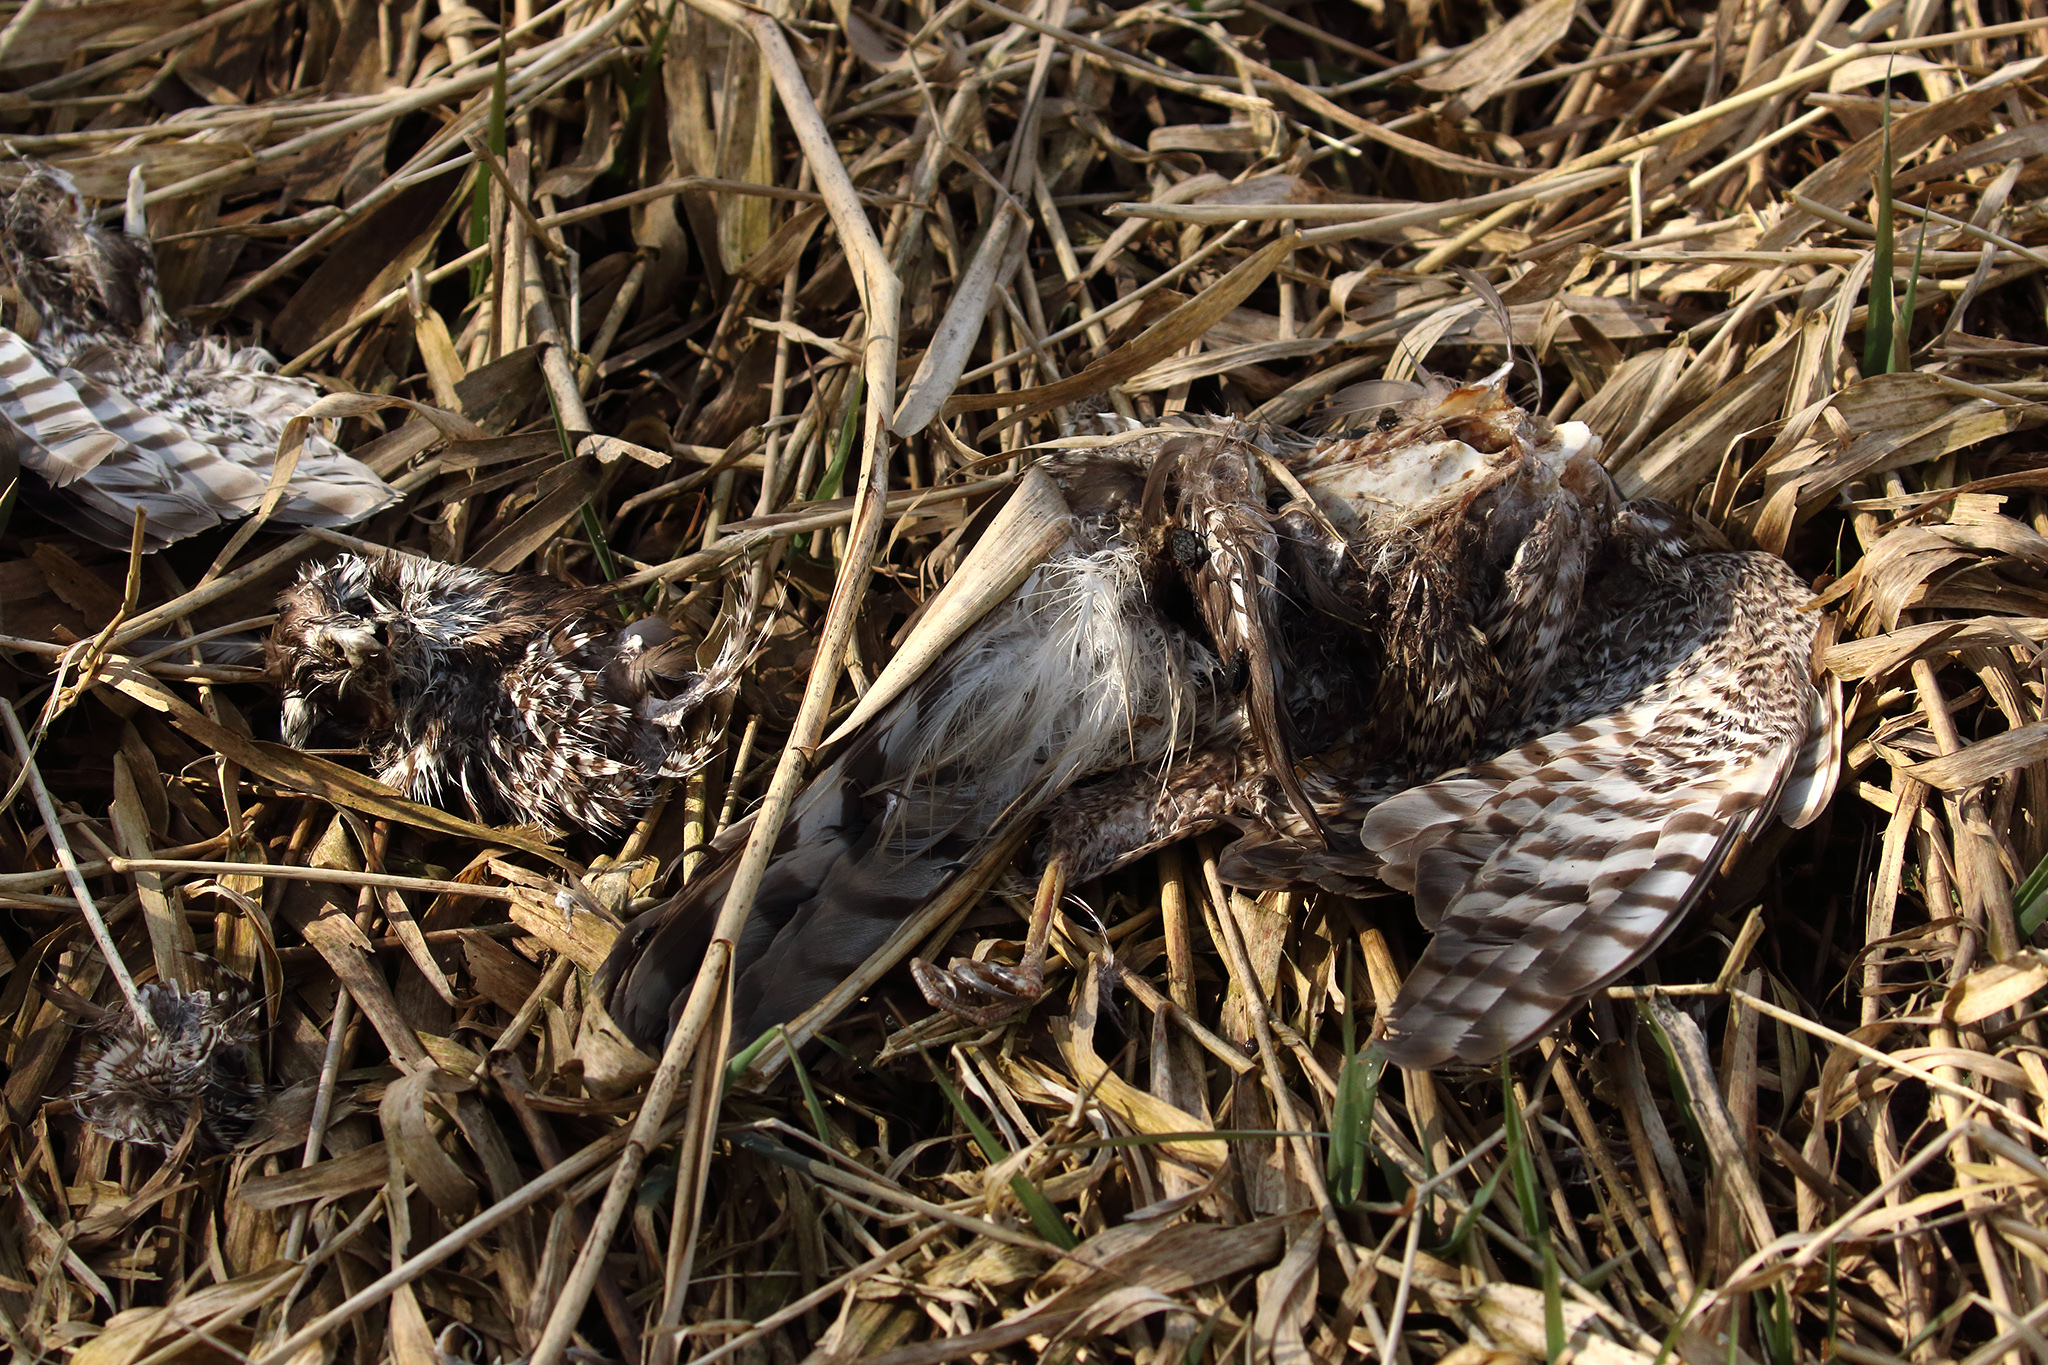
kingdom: Animalia
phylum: Chordata
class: Aves
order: Accipitriformes
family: Accipitridae
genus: Accipiter
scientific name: Accipiter nisus
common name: Eurasian sparrowhawk
